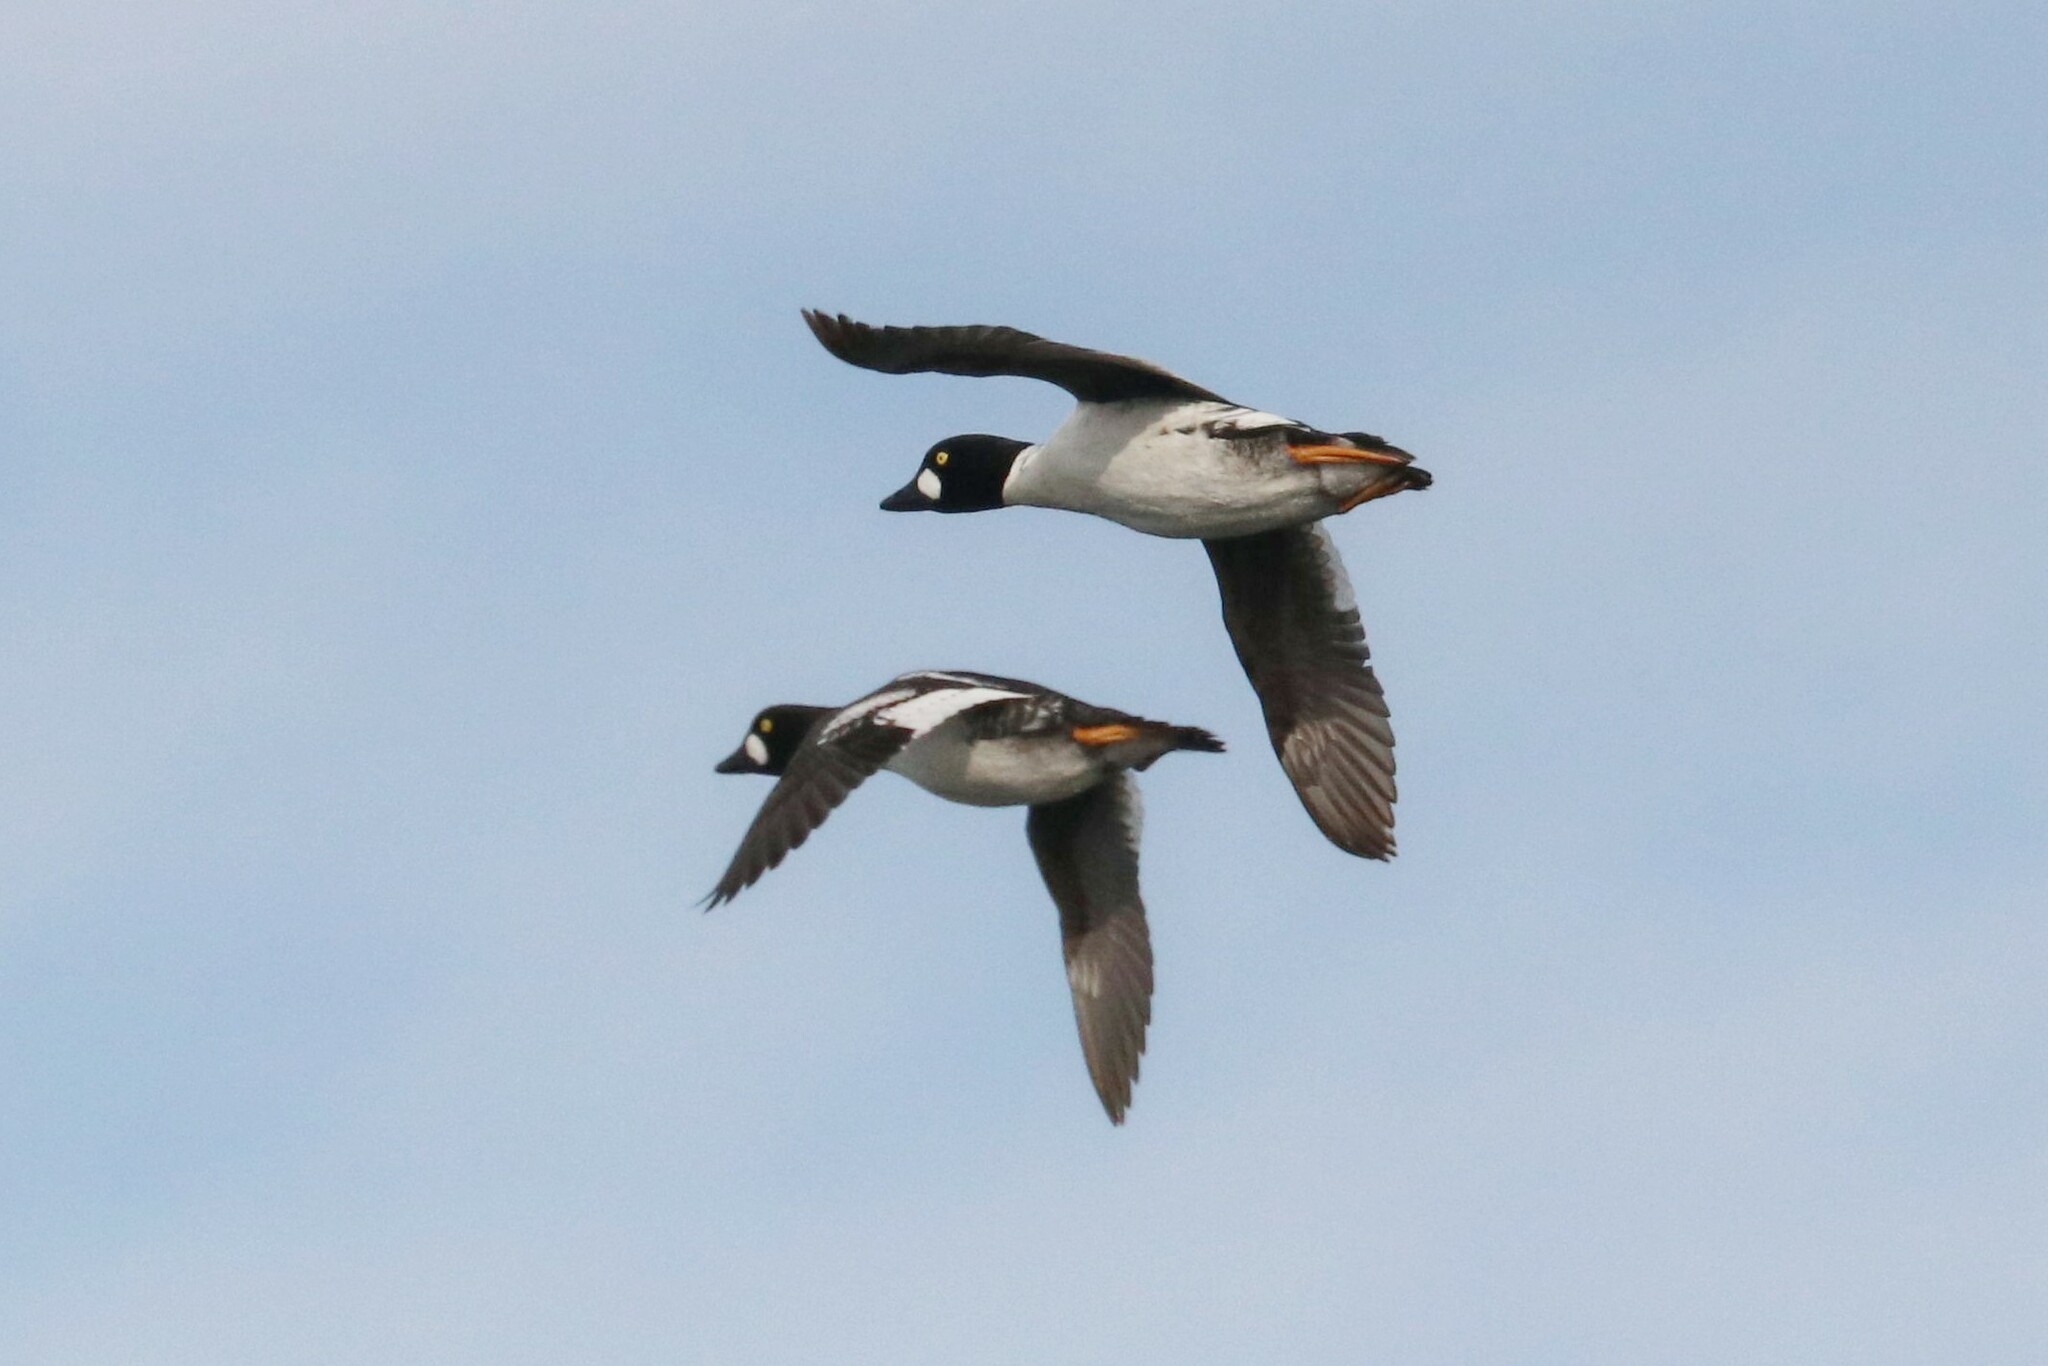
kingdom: Animalia
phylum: Chordata
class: Aves
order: Anseriformes
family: Anatidae
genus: Bucephala
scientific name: Bucephala clangula
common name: Common goldeneye
